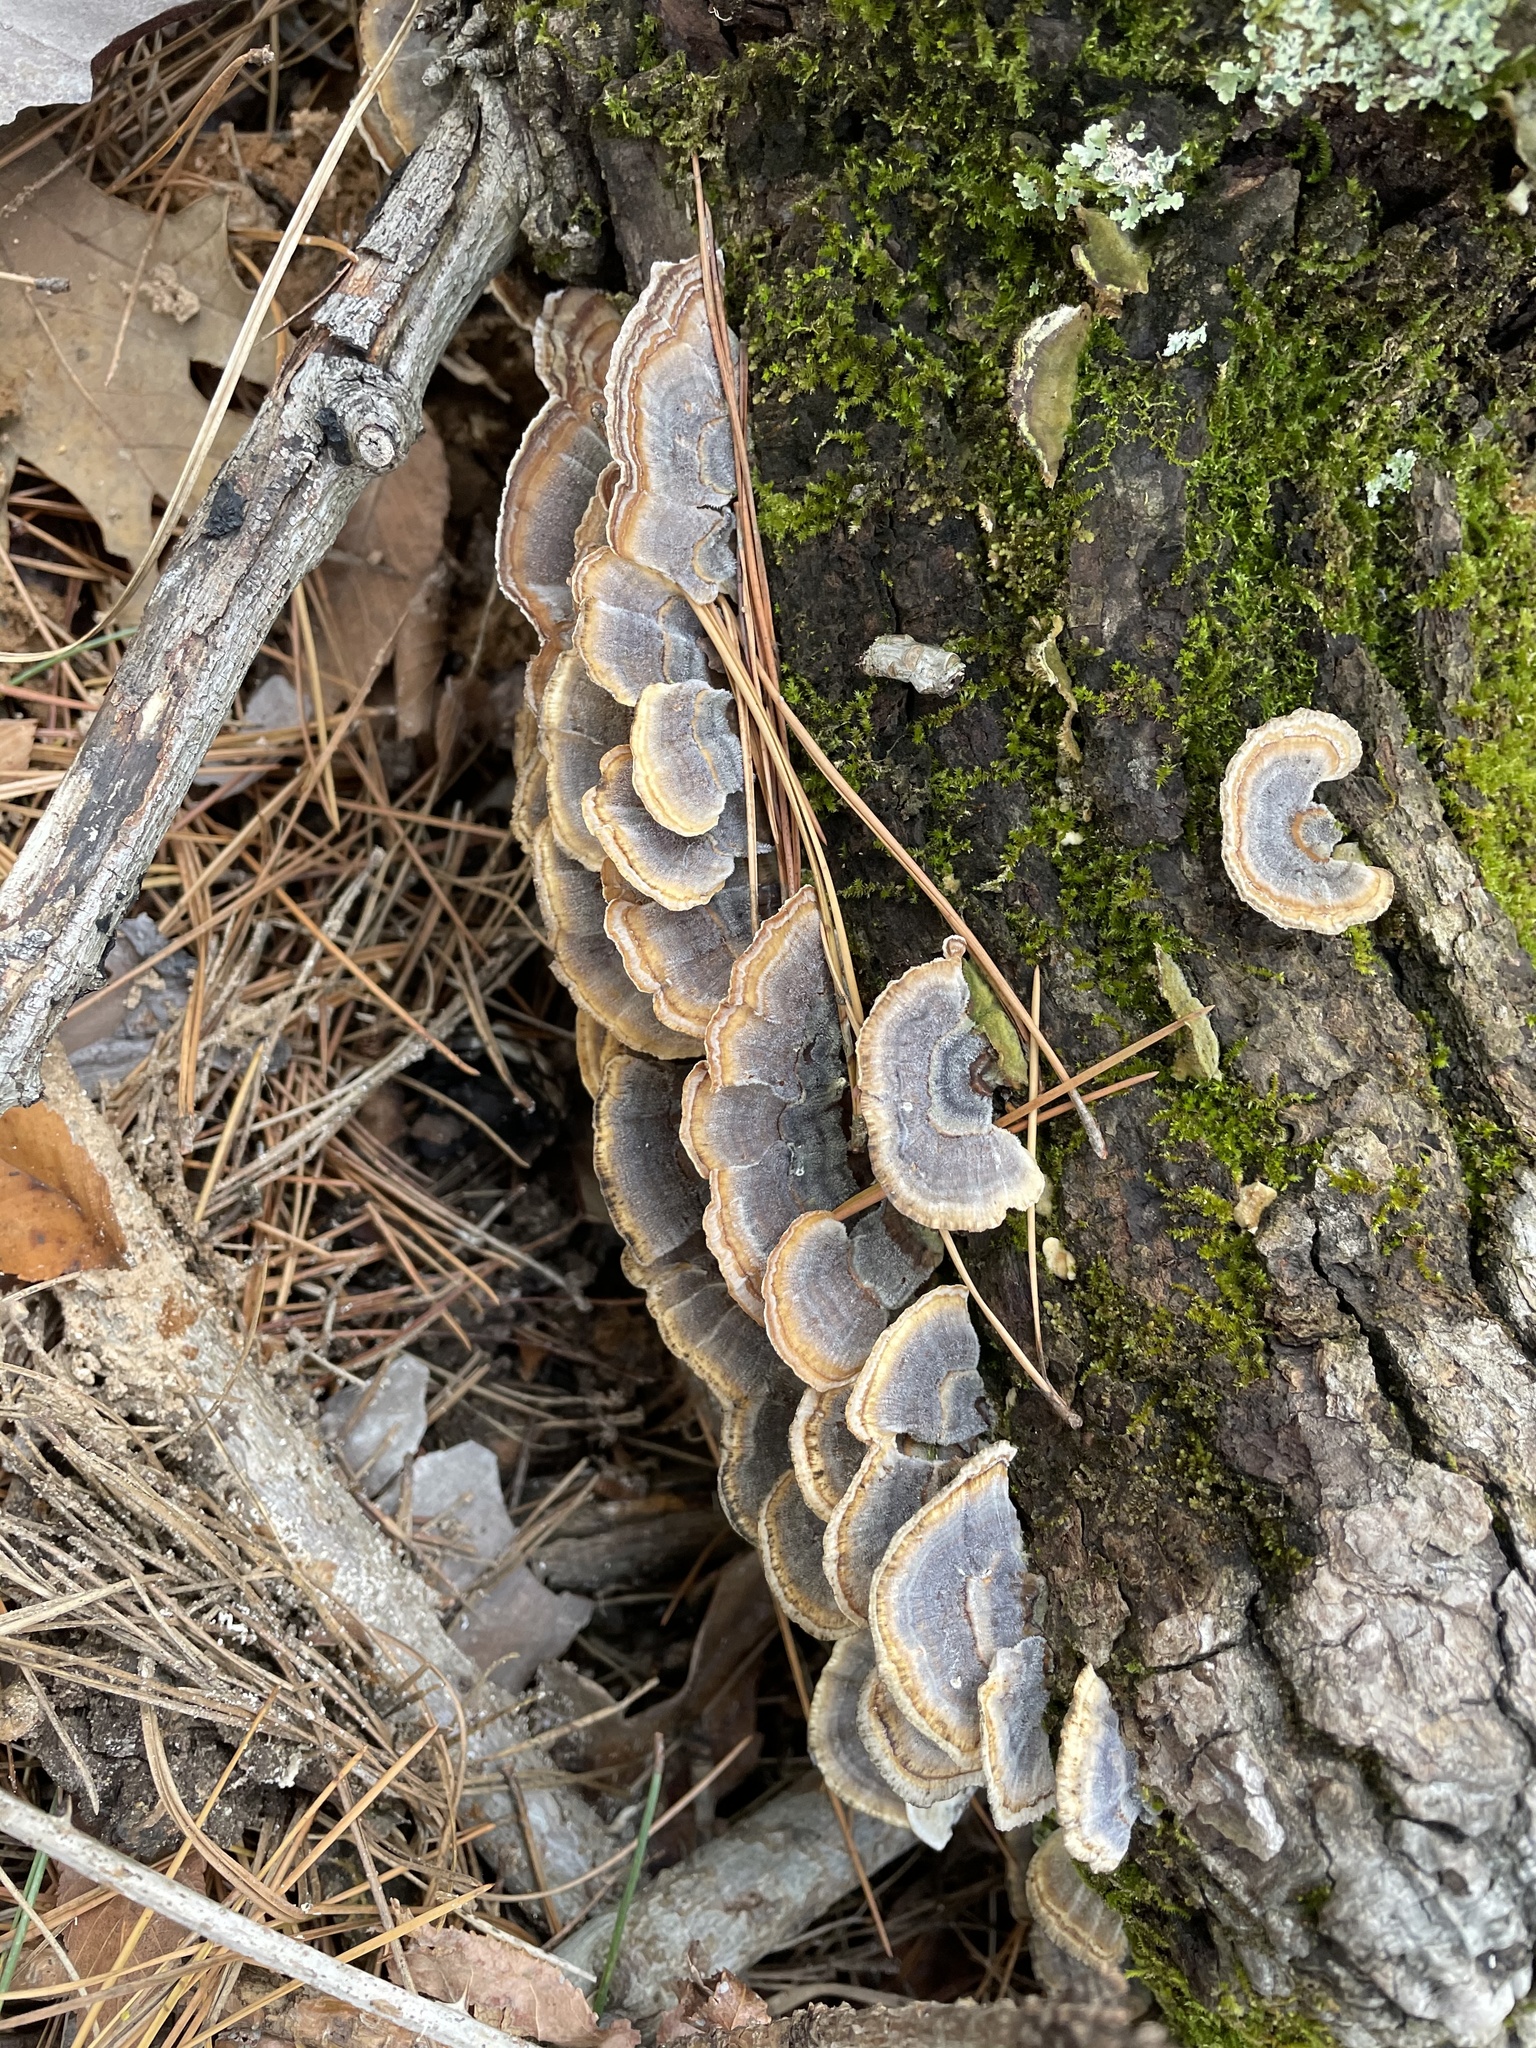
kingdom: Fungi
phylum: Basidiomycota
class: Agaricomycetes
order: Polyporales
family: Polyporaceae
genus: Trametes
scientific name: Trametes versicolor
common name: Turkeytail
